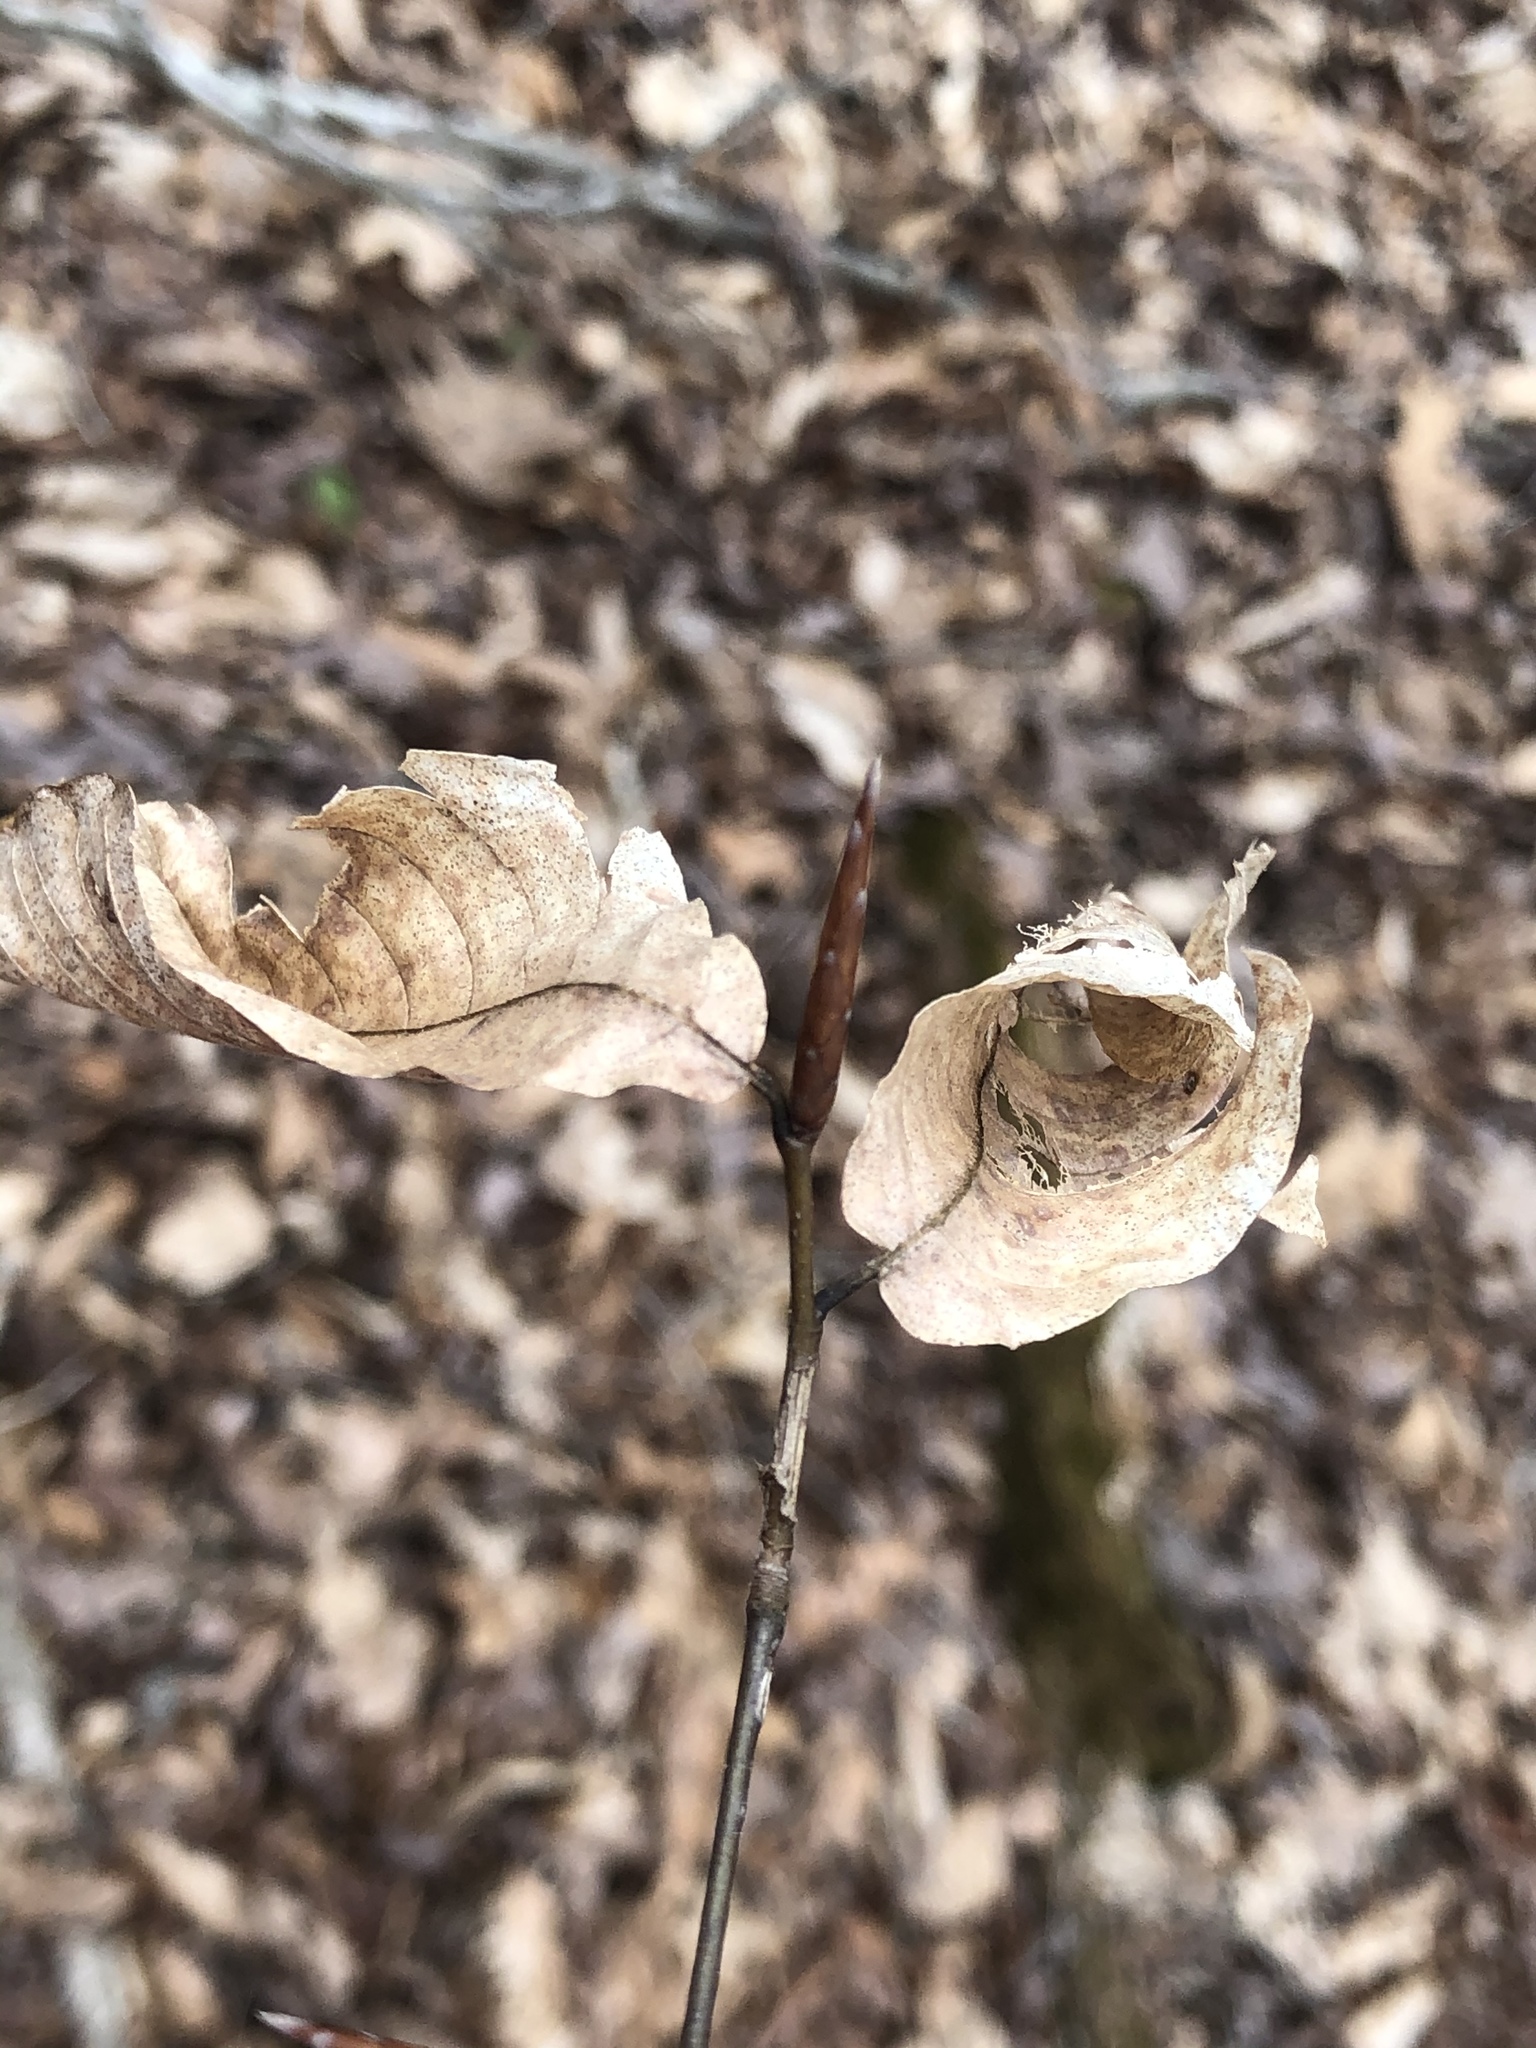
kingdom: Plantae
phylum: Tracheophyta
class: Magnoliopsida
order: Fagales
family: Fagaceae
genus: Fagus
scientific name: Fagus grandifolia
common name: American beech
